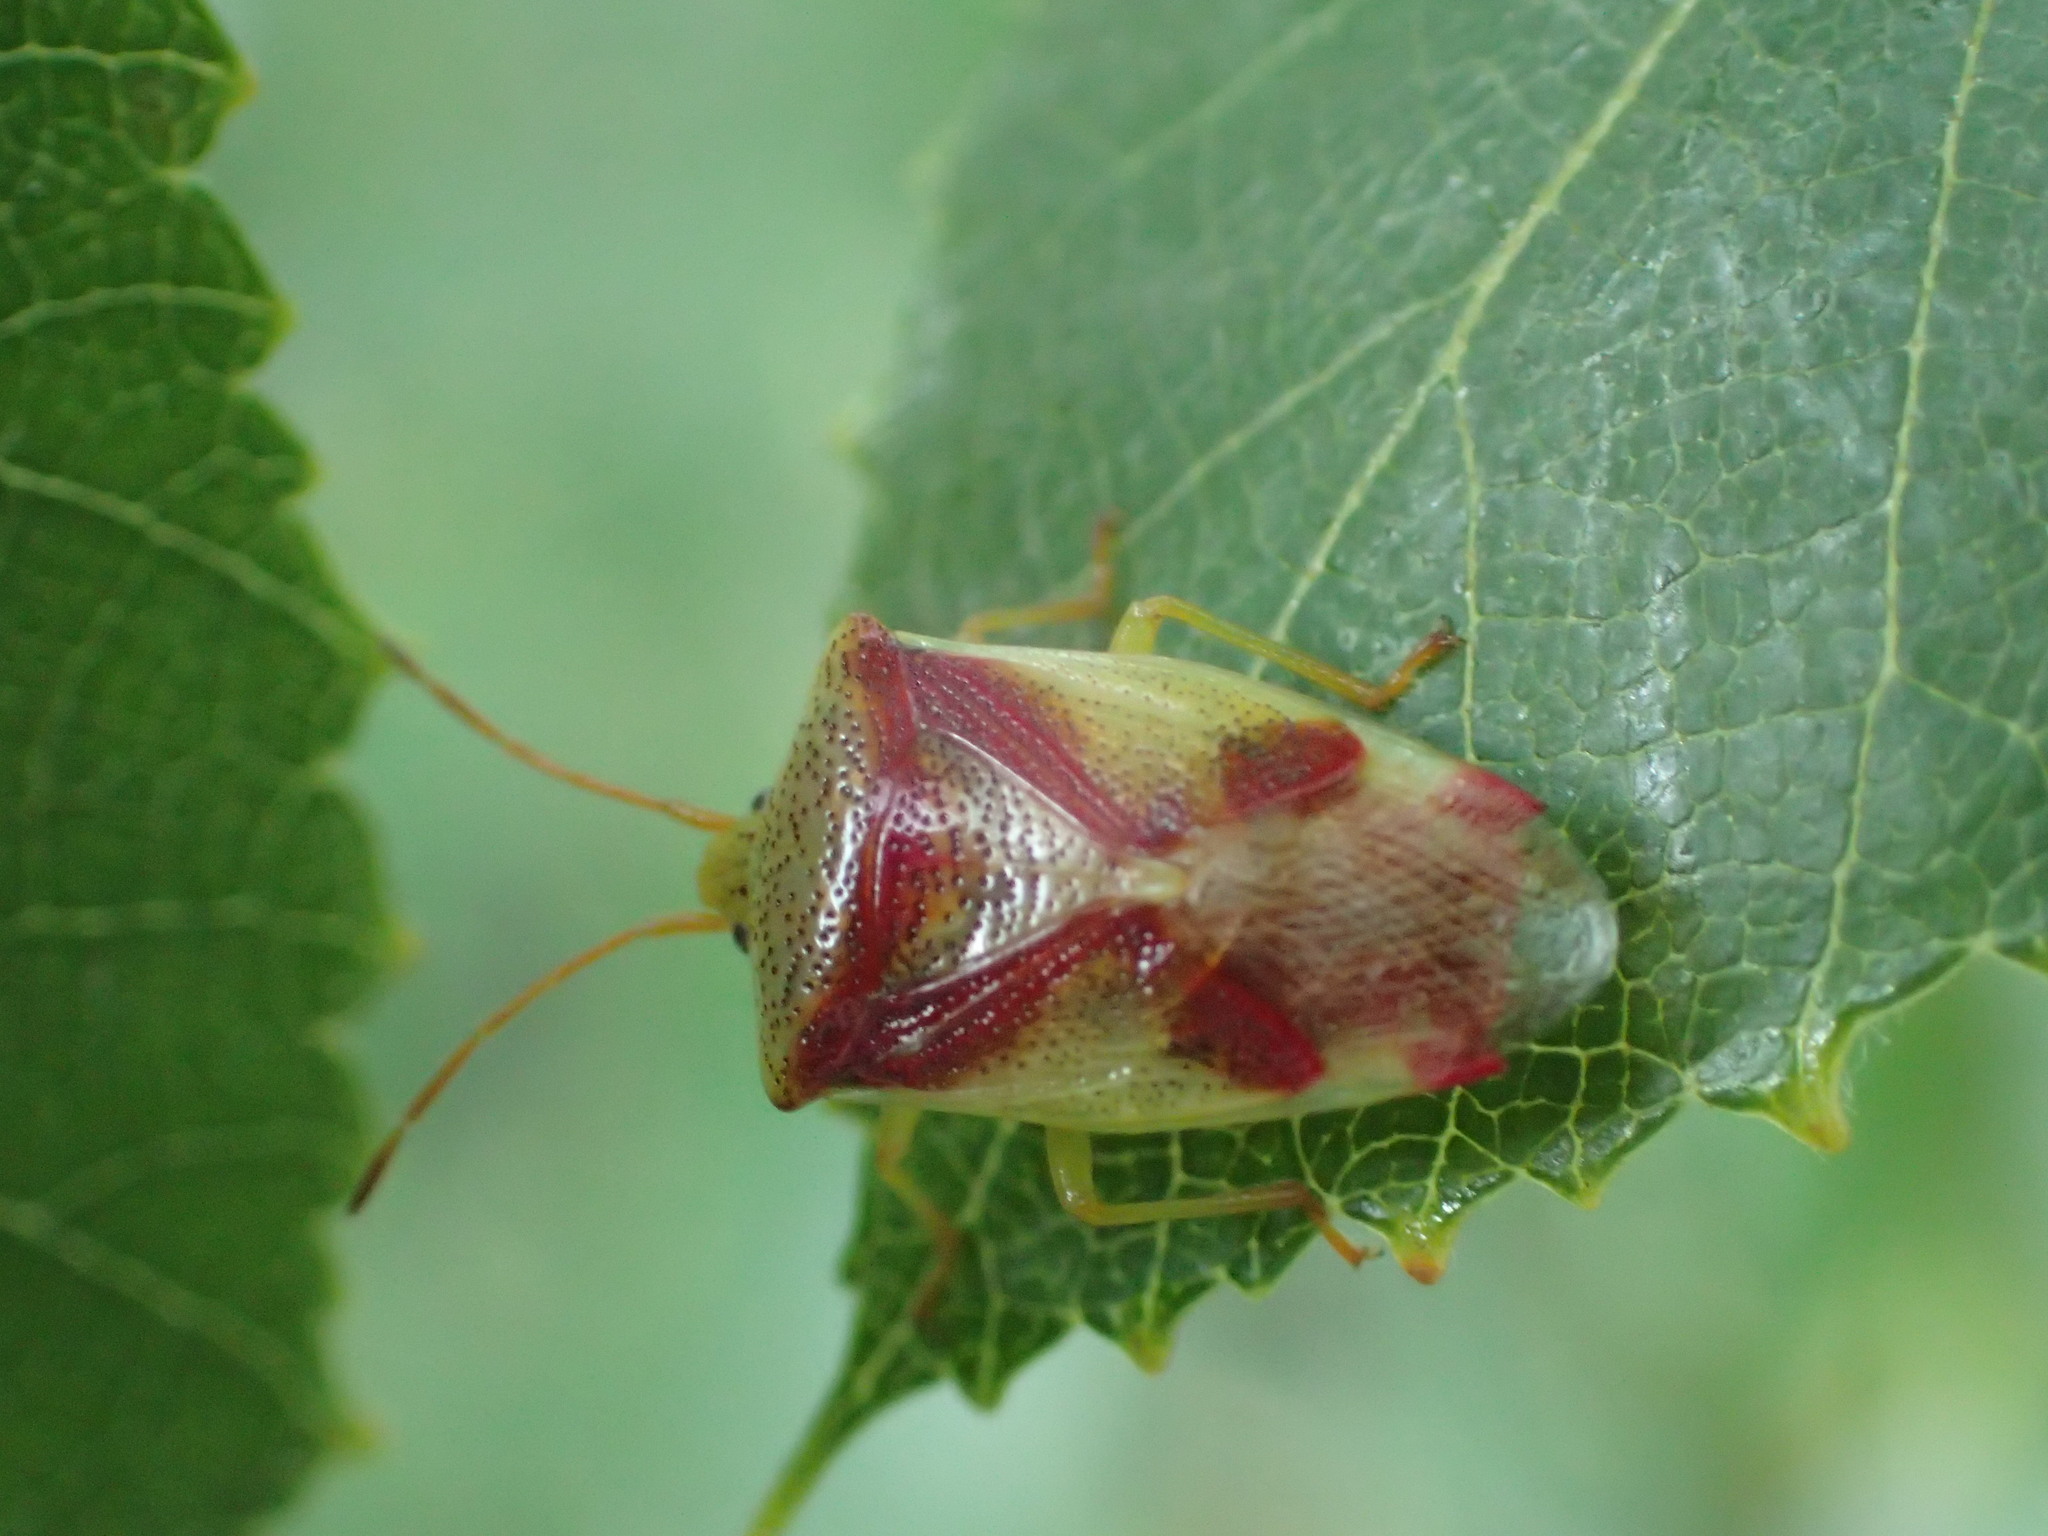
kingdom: Animalia
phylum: Arthropoda
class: Insecta
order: Hemiptera
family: Acanthosomatidae
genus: Elasmostethus
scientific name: Elasmostethus cruciatus
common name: Red-cross shield bug
